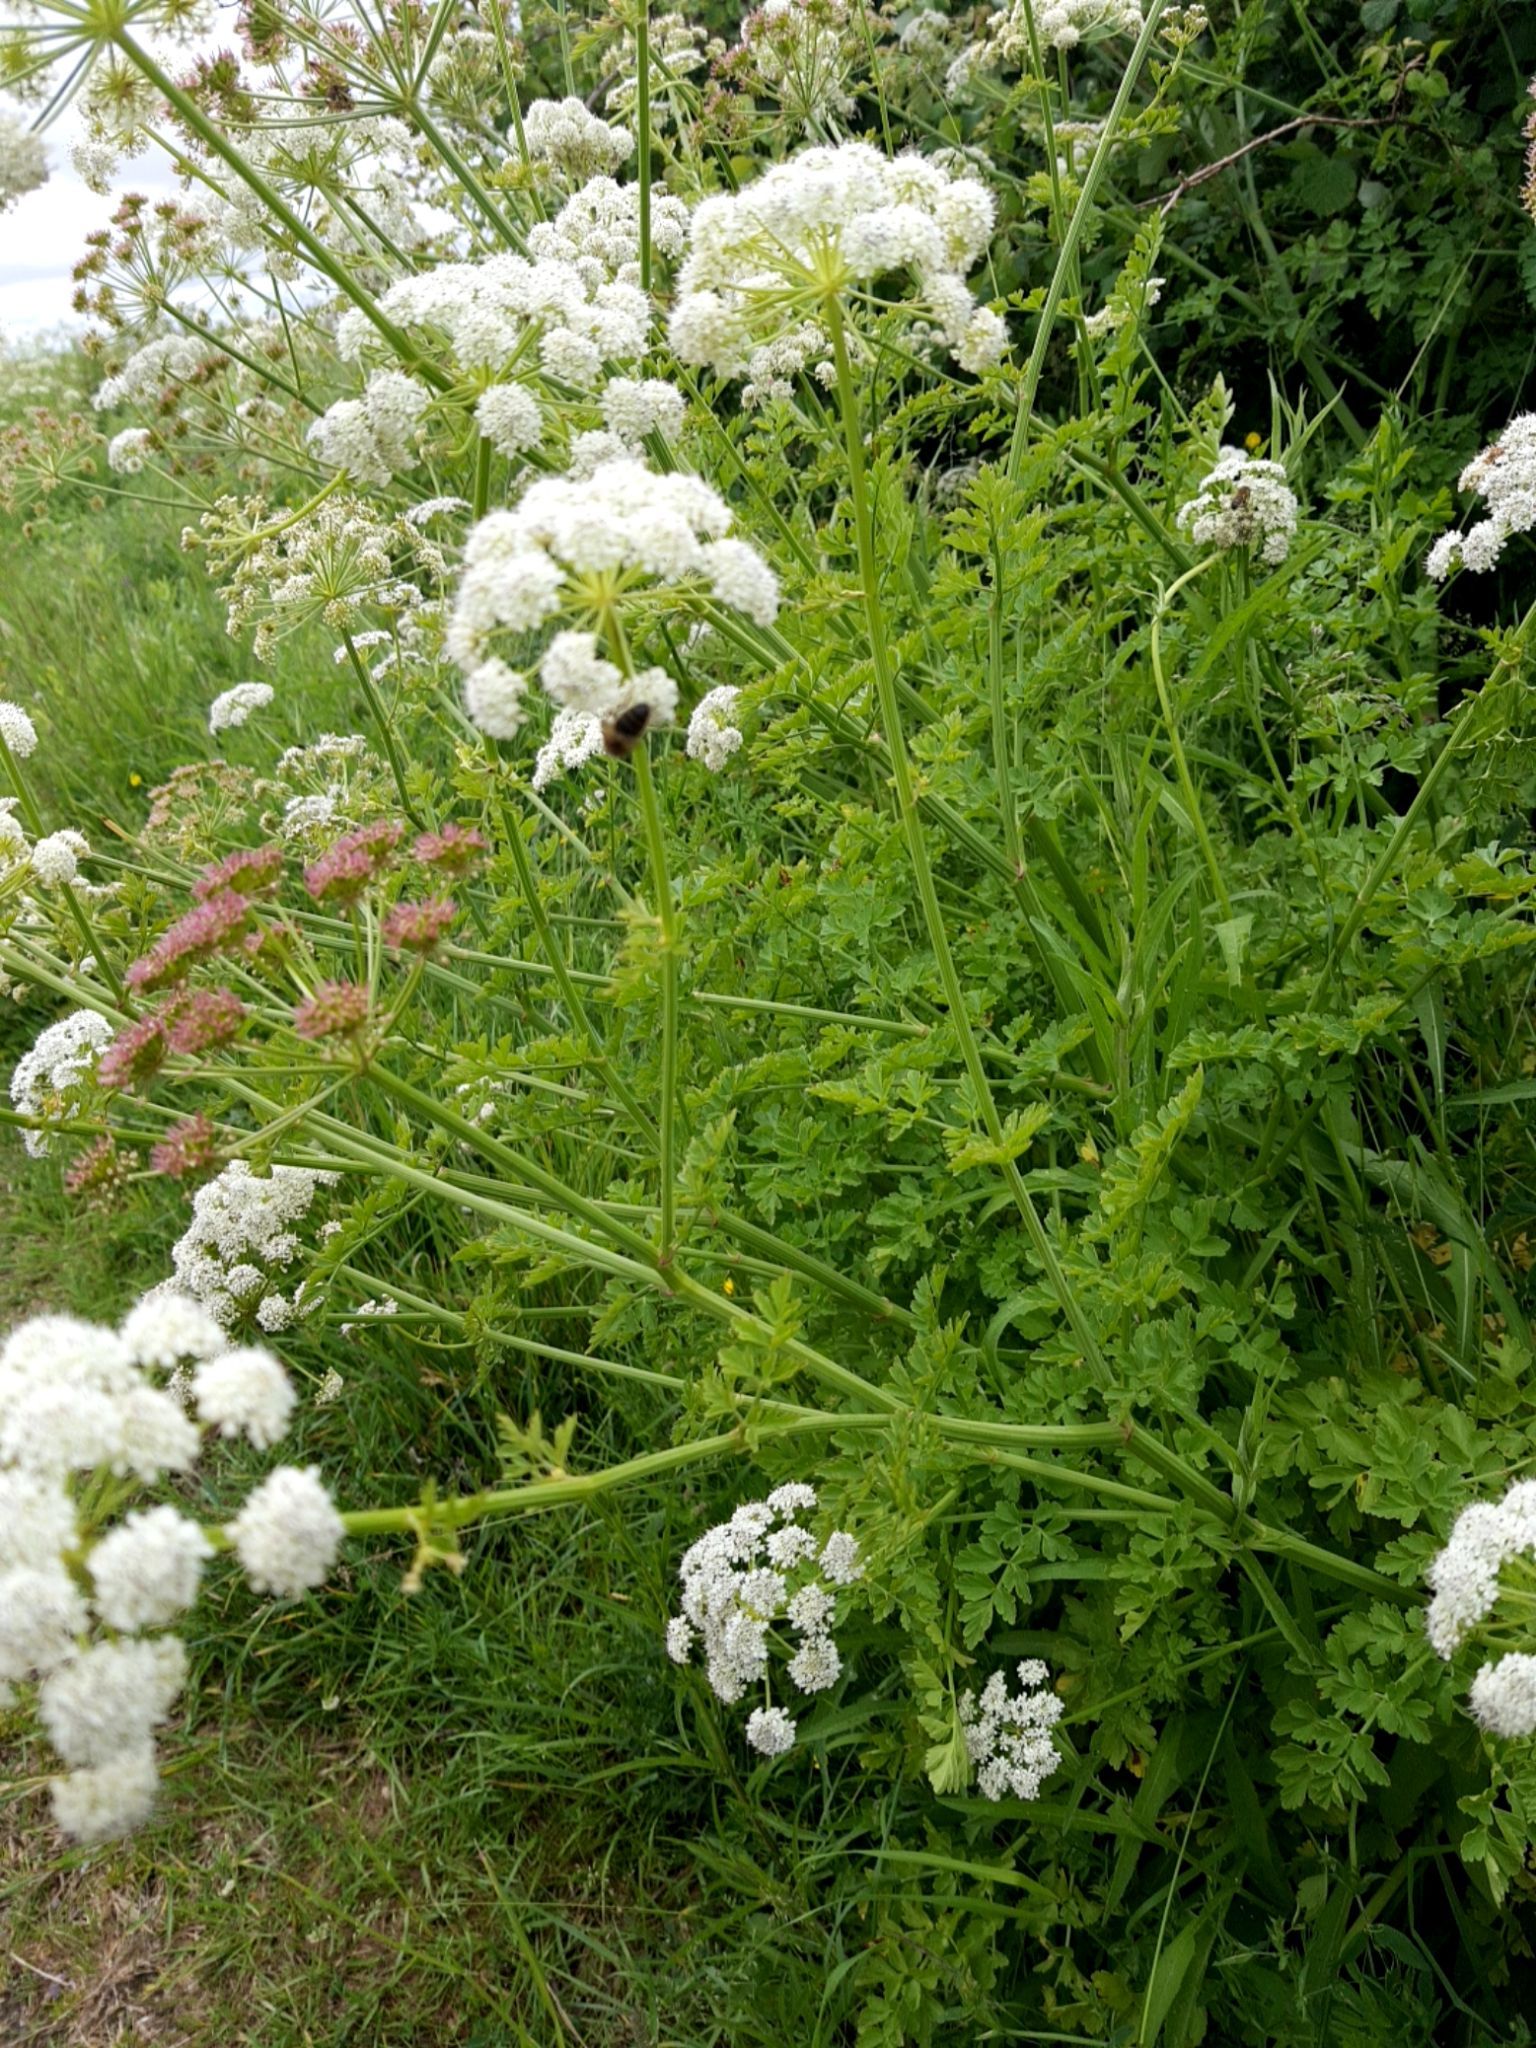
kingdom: Plantae
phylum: Tracheophyta
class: Magnoliopsida
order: Apiales
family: Apiaceae
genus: Oenanthe
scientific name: Oenanthe crocata
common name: Hemlock water-dropwort
